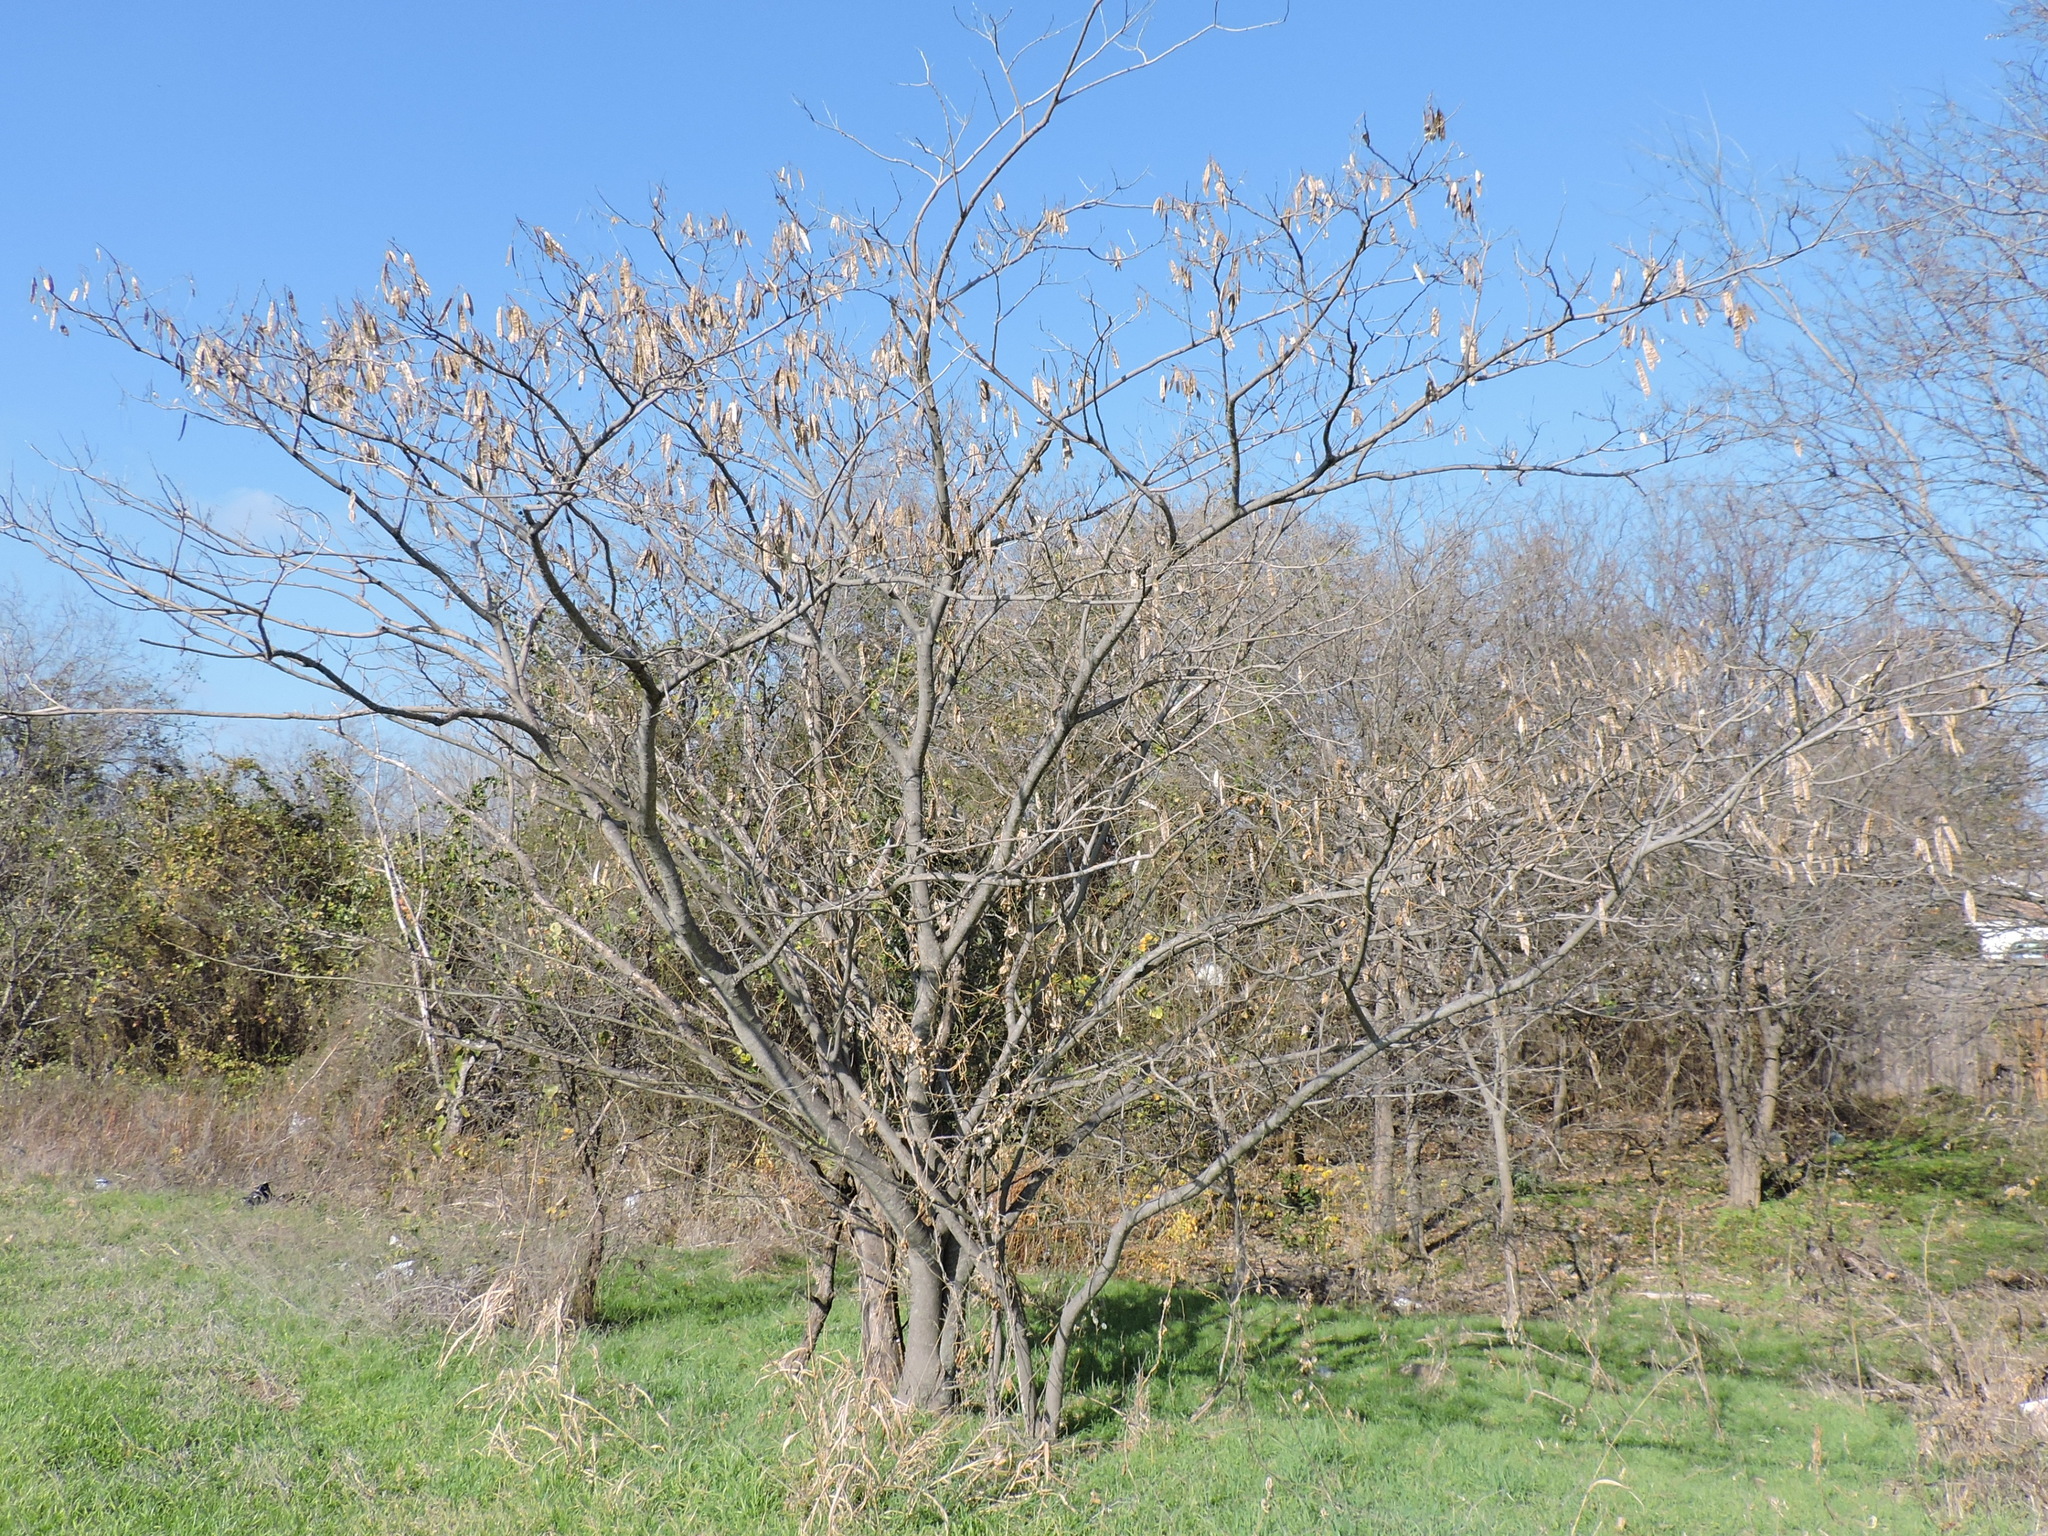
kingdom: Plantae
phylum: Tracheophyta
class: Magnoliopsida
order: Fabales
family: Fabaceae
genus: Albizia
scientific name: Albizia julibrissin
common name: Silktree
